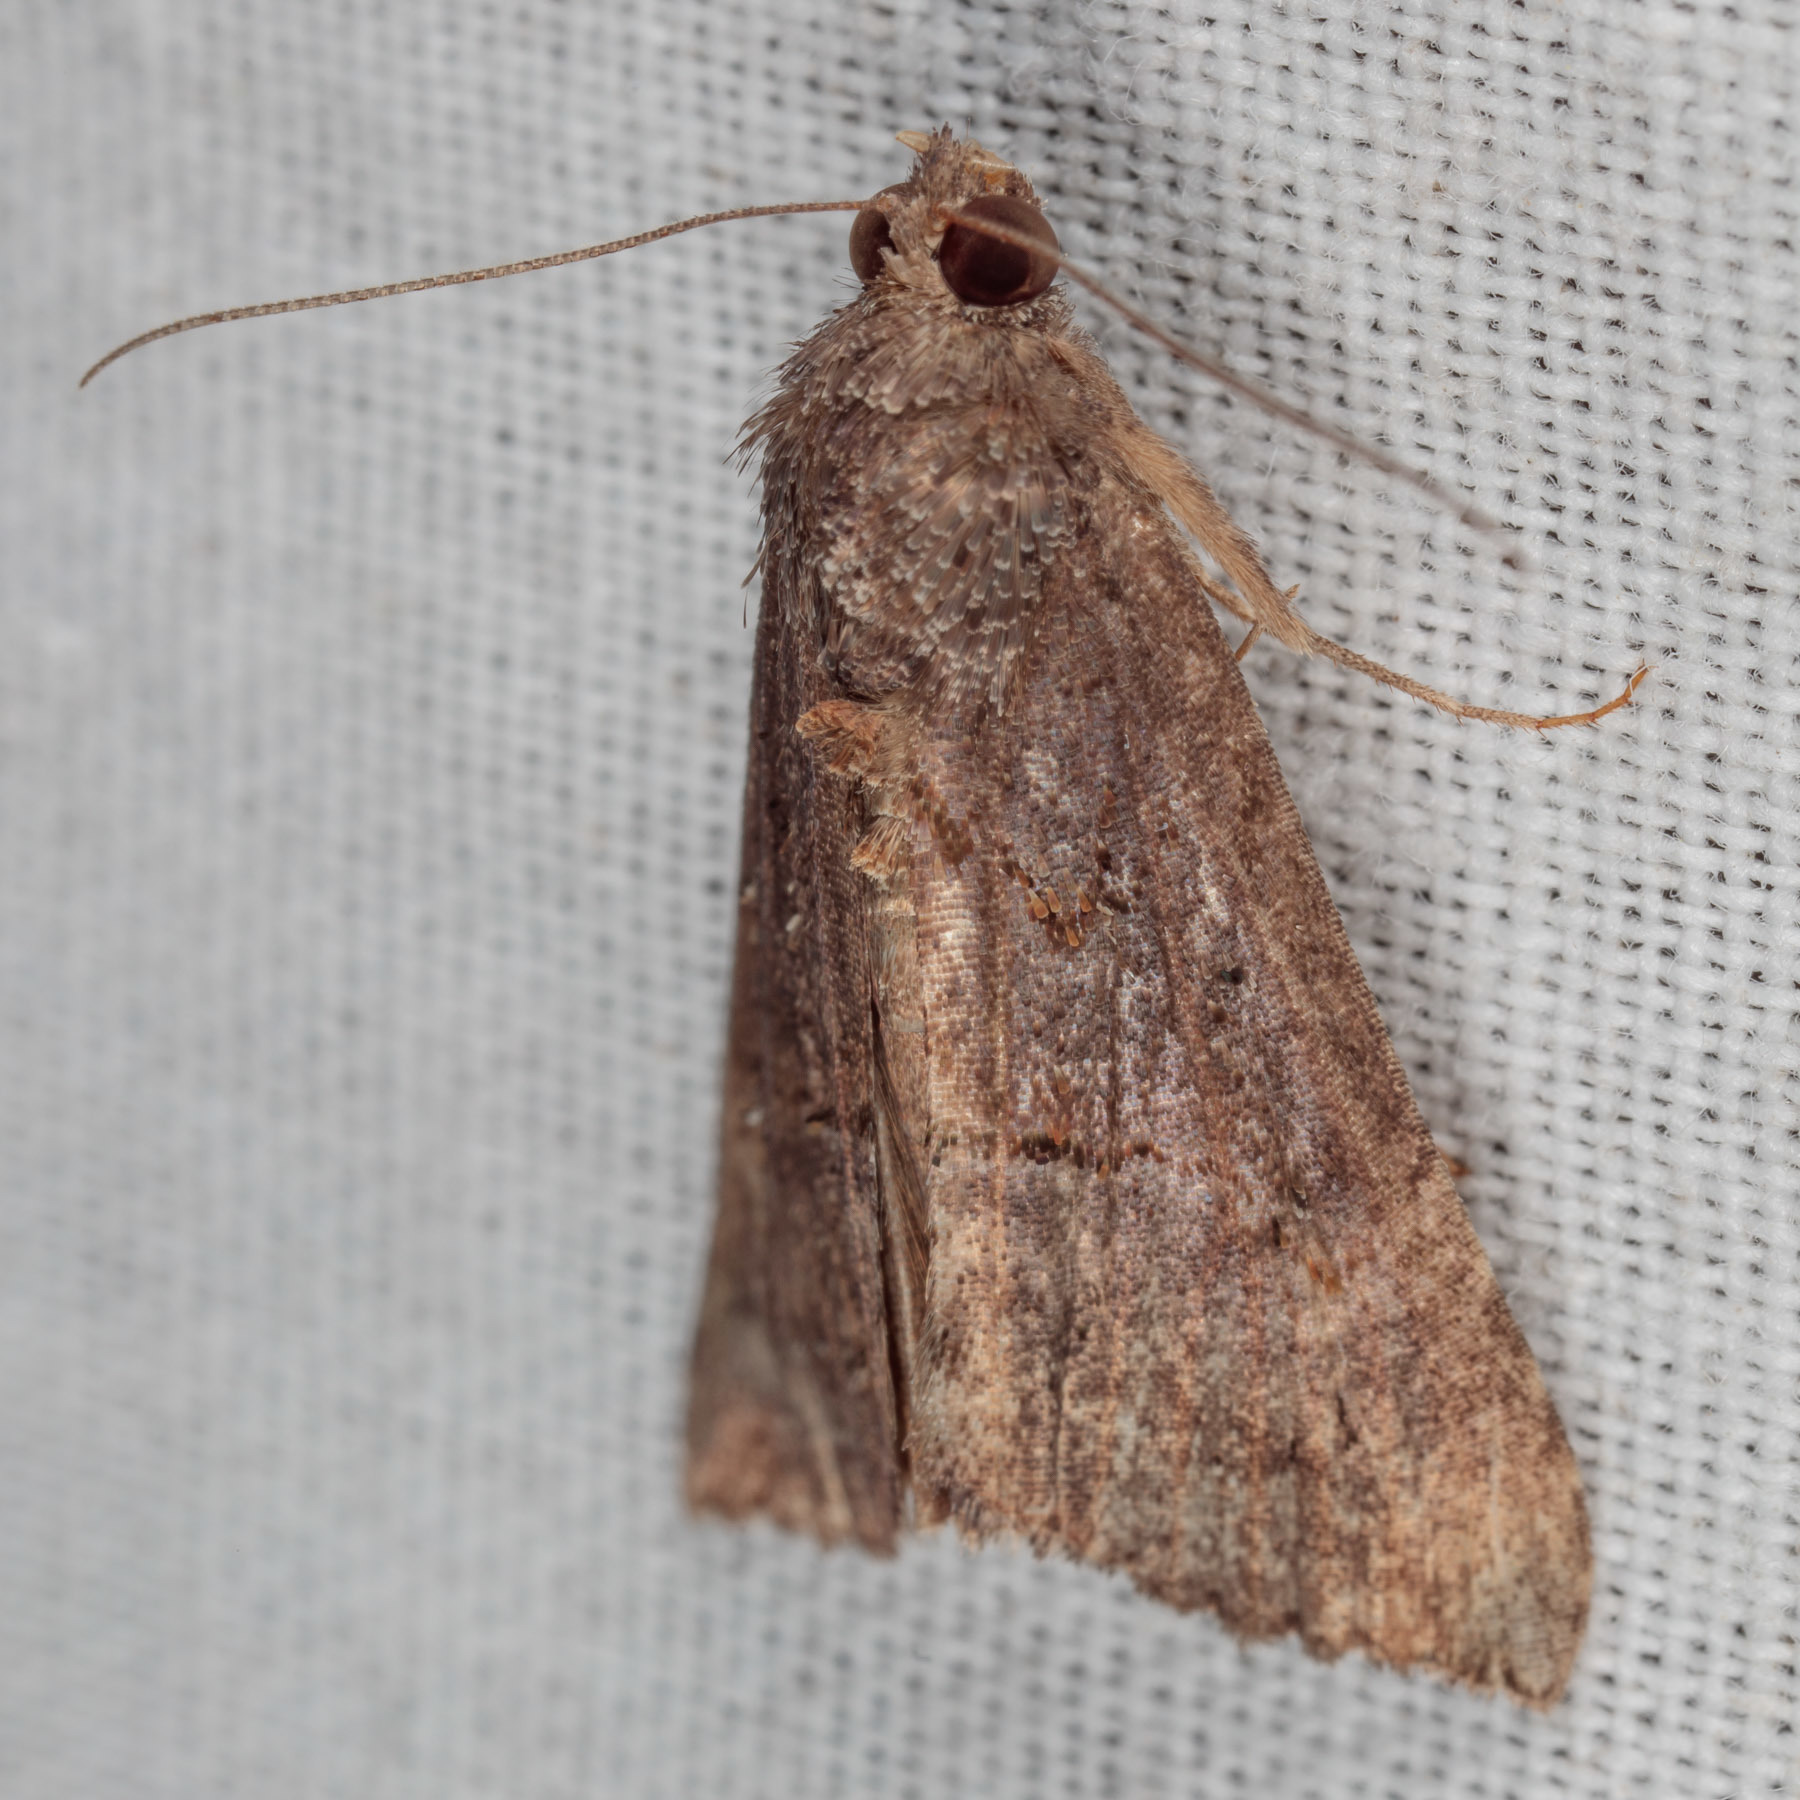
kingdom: Animalia
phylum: Arthropoda
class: Insecta
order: Lepidoptera
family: Erebidae
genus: Hypena
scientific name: Hypena scabra
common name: Green cloverworm
